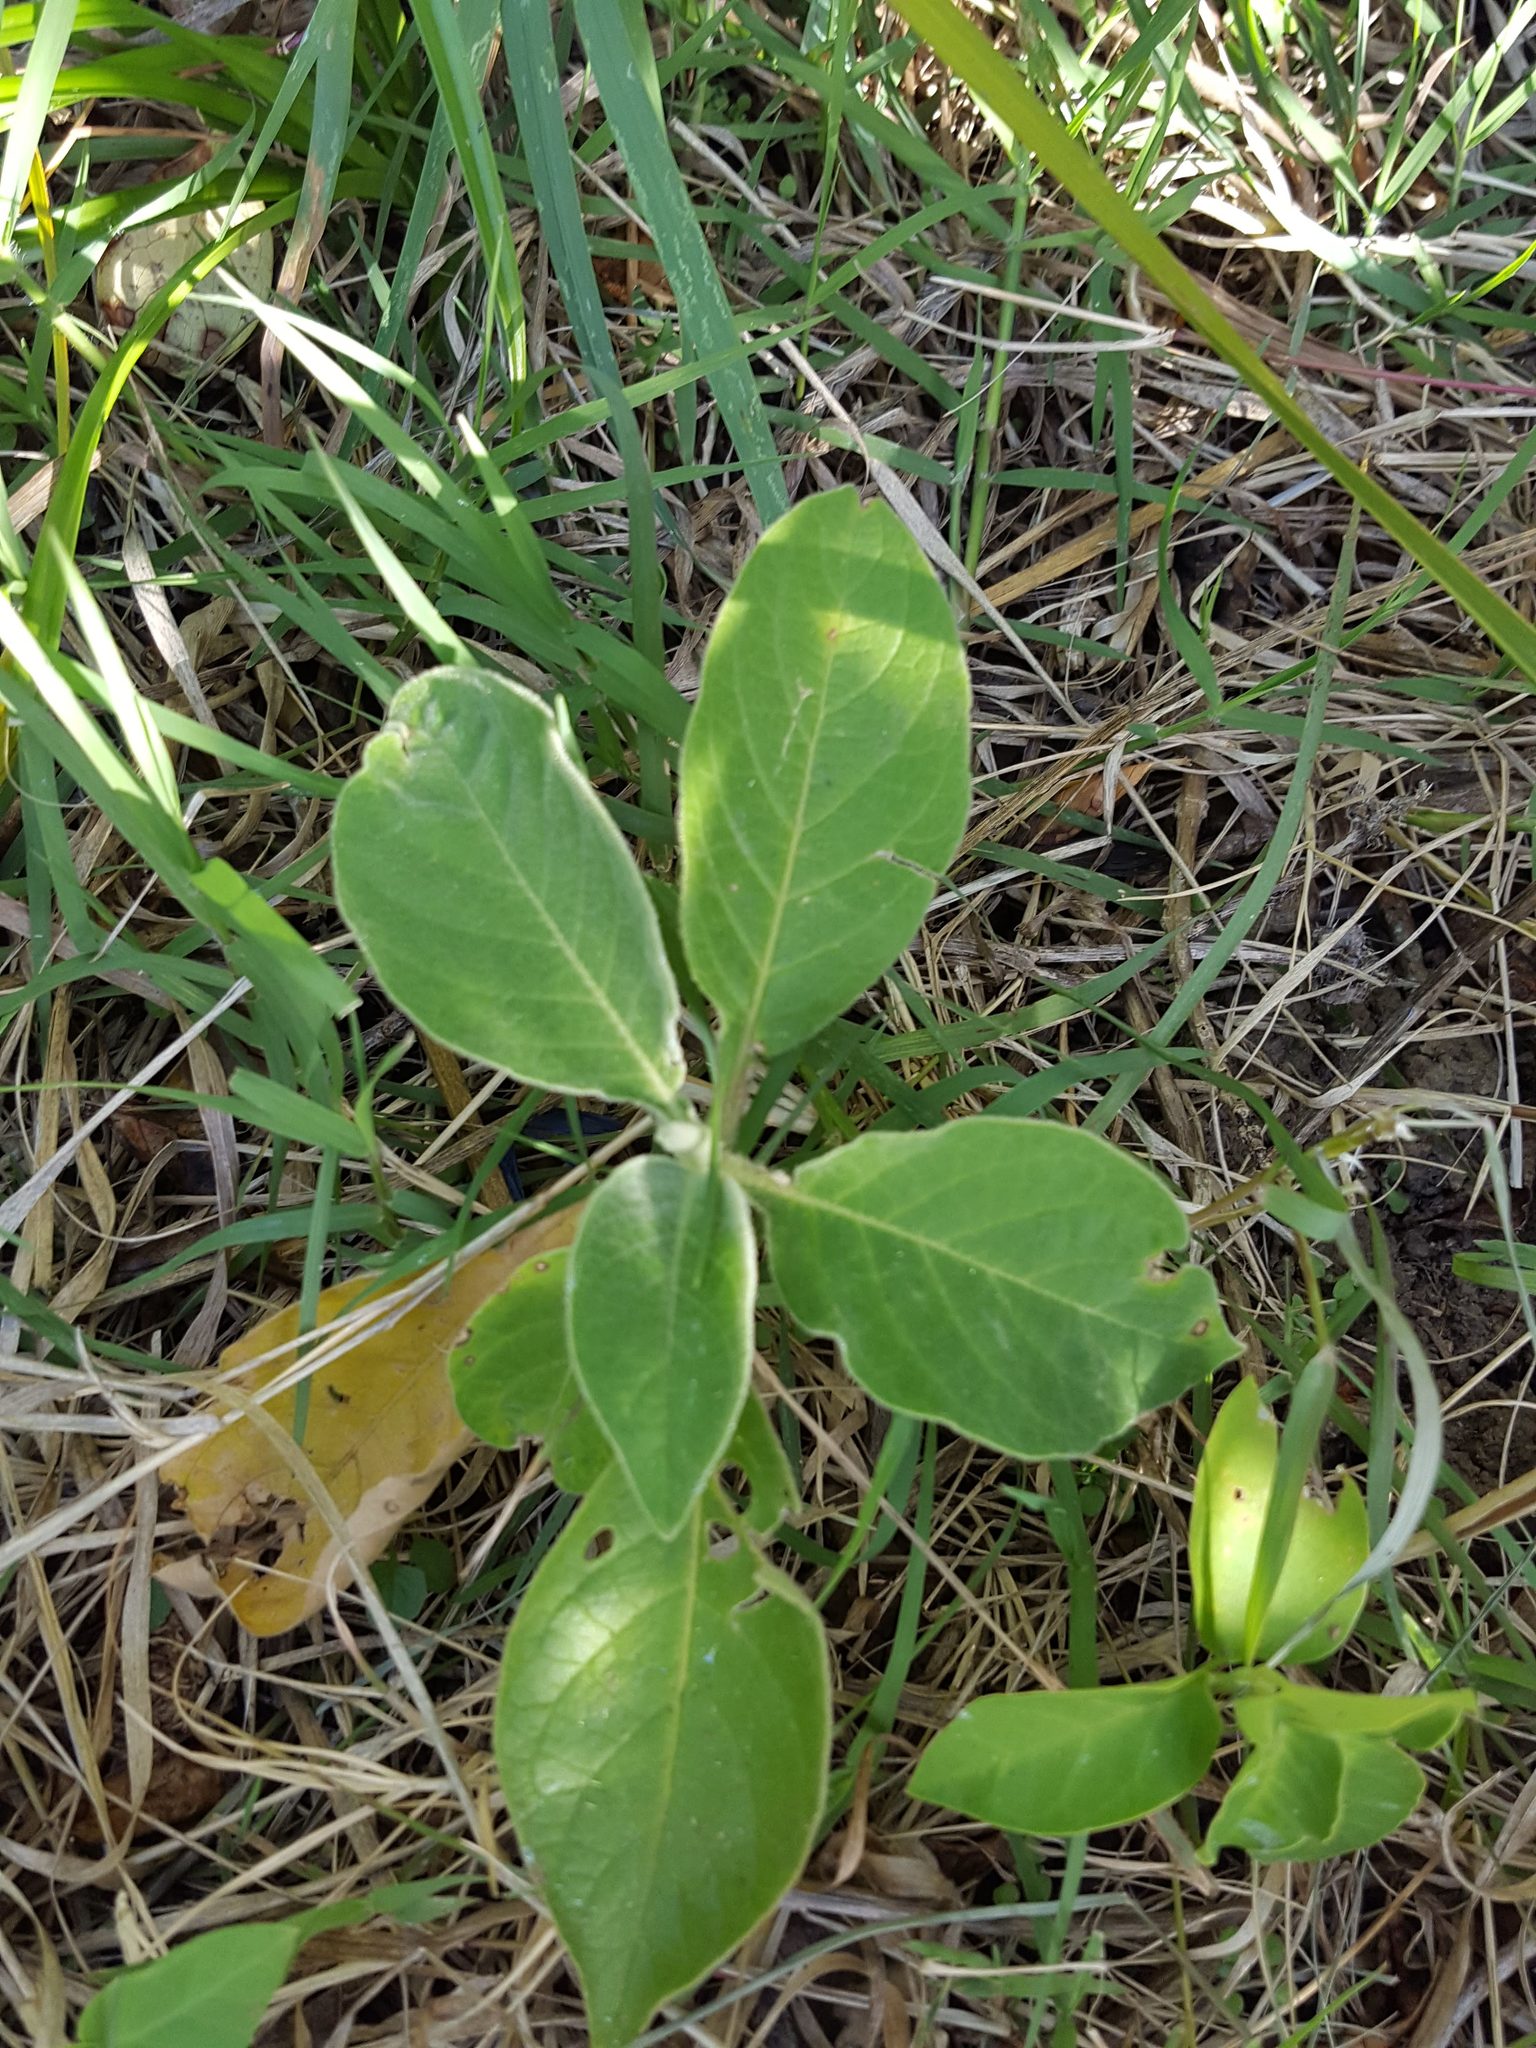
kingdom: Plantae
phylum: Tracheophyta
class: Magnoliopsida
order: Solanales
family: Solanaceae
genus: Solanum
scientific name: Solanum mauritianum
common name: Earleaf nightshade
